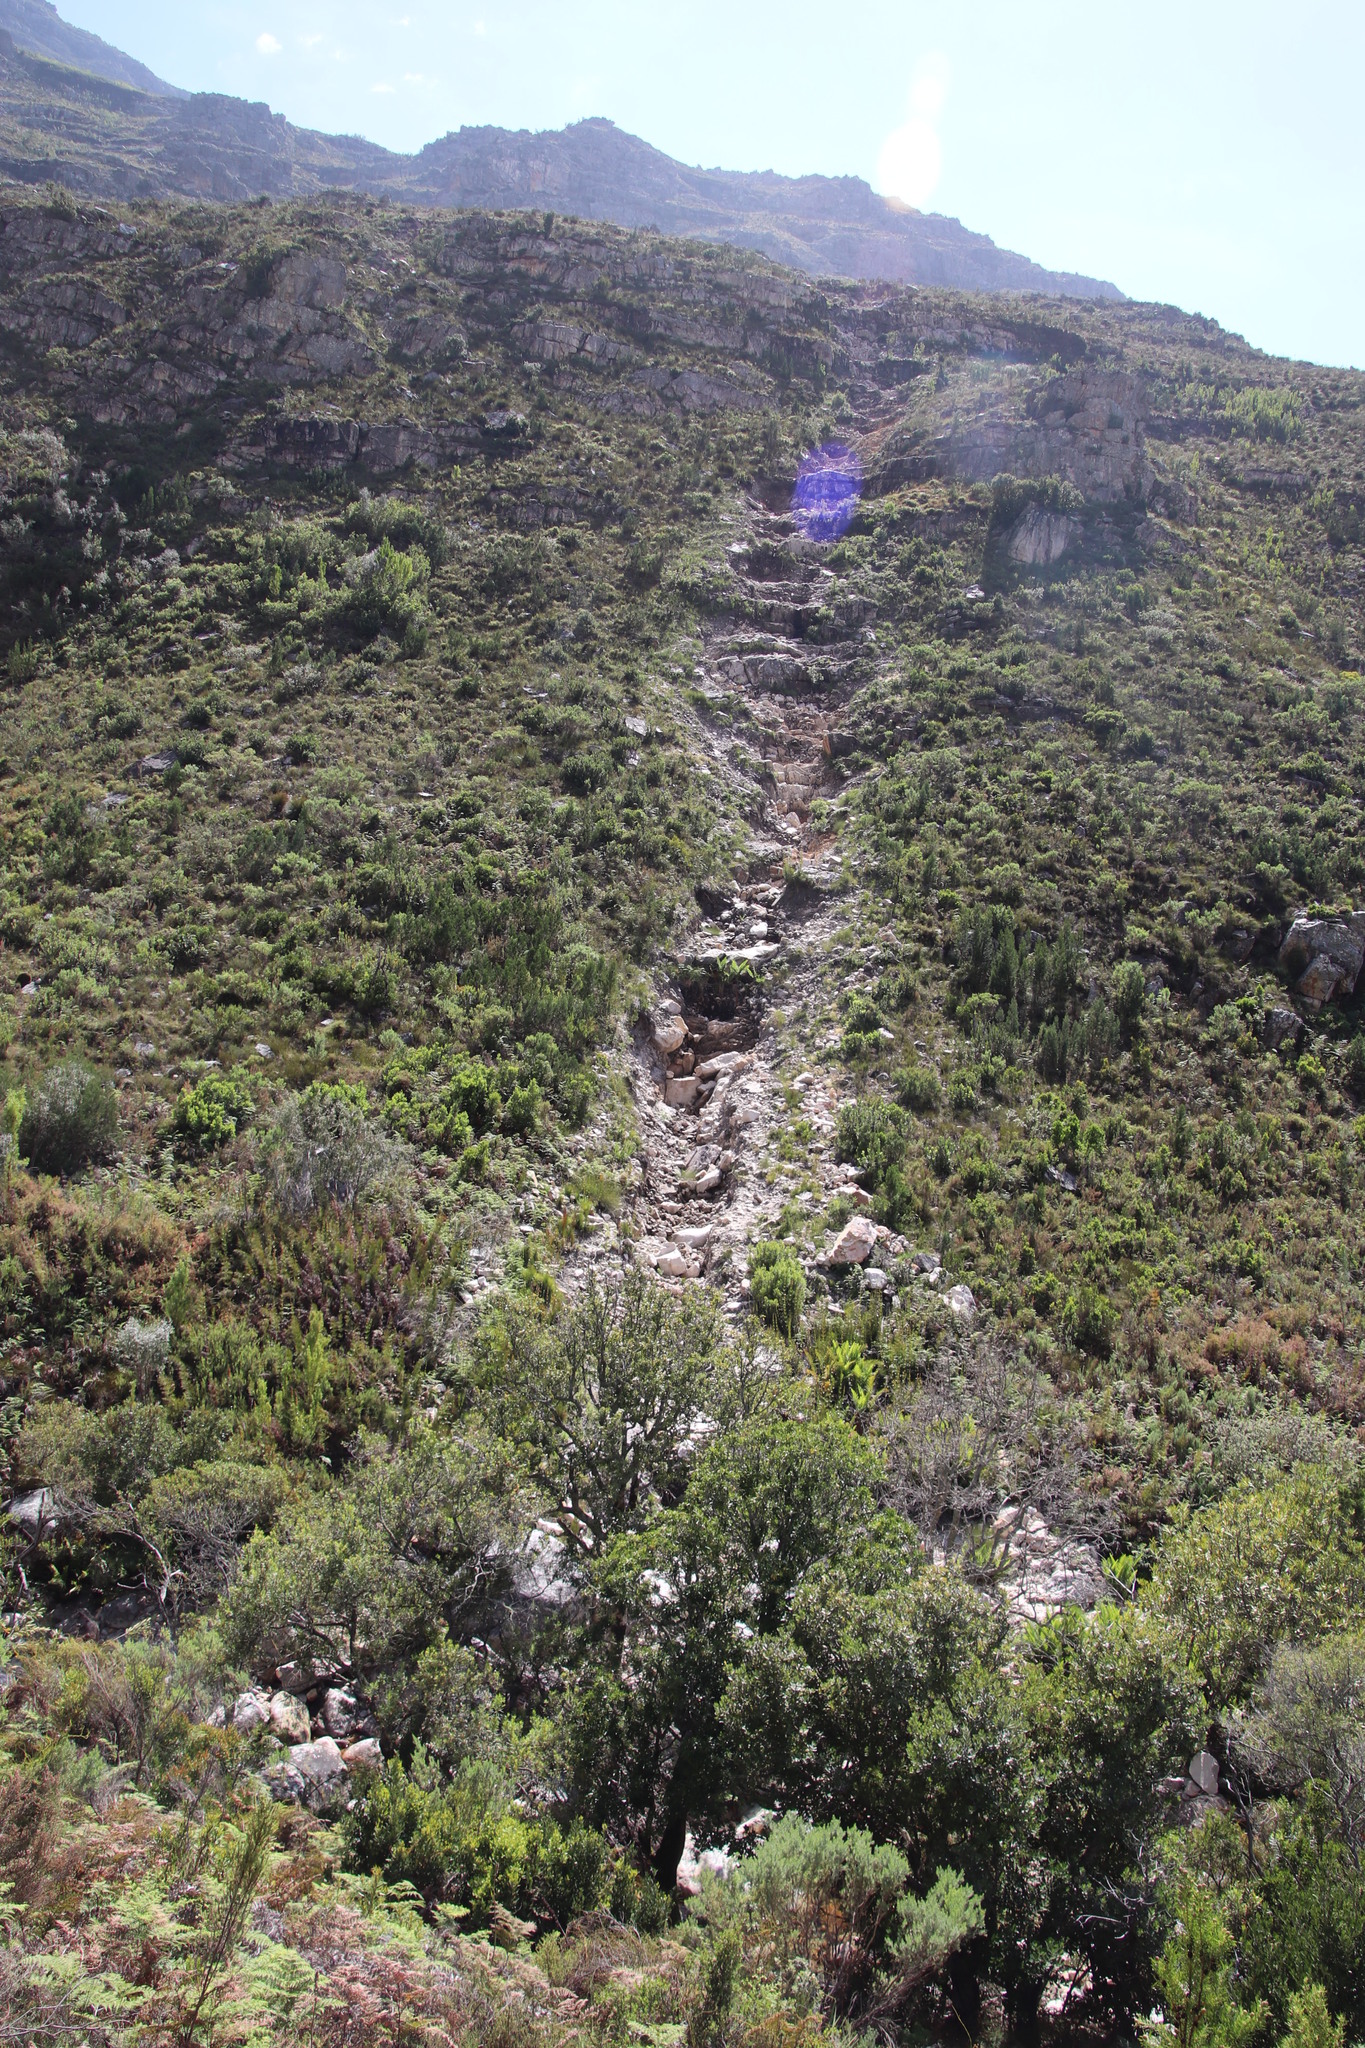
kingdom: Plantae
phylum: Tracheophyta
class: Pinopsida
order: Pinales
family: Cupressaceae
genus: Widdringtonia
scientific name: Widdringtonia nodiflora
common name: Cape cypress
